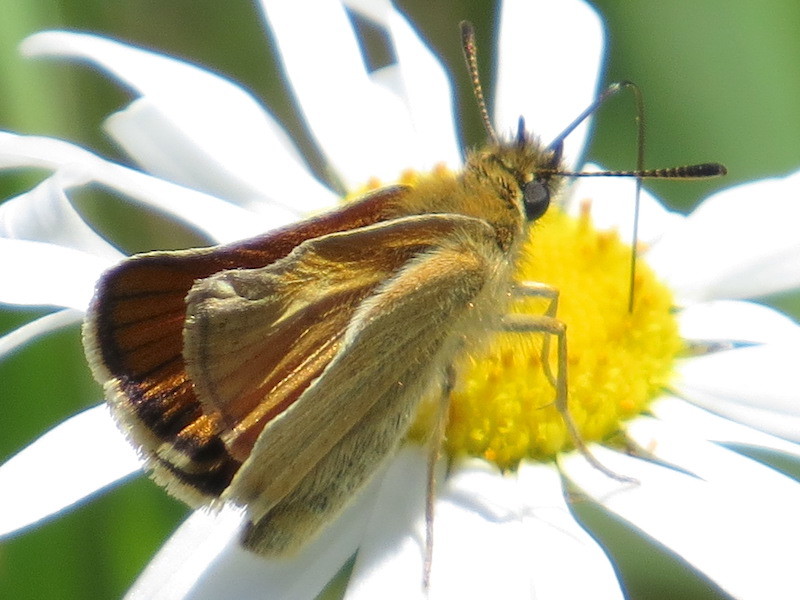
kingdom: Animalia
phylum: Arthropoda
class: Insecta
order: Lepidoptera
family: Hesperiidae
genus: Thymelicus
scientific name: Thymelicus lineola
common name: Essex skipper
